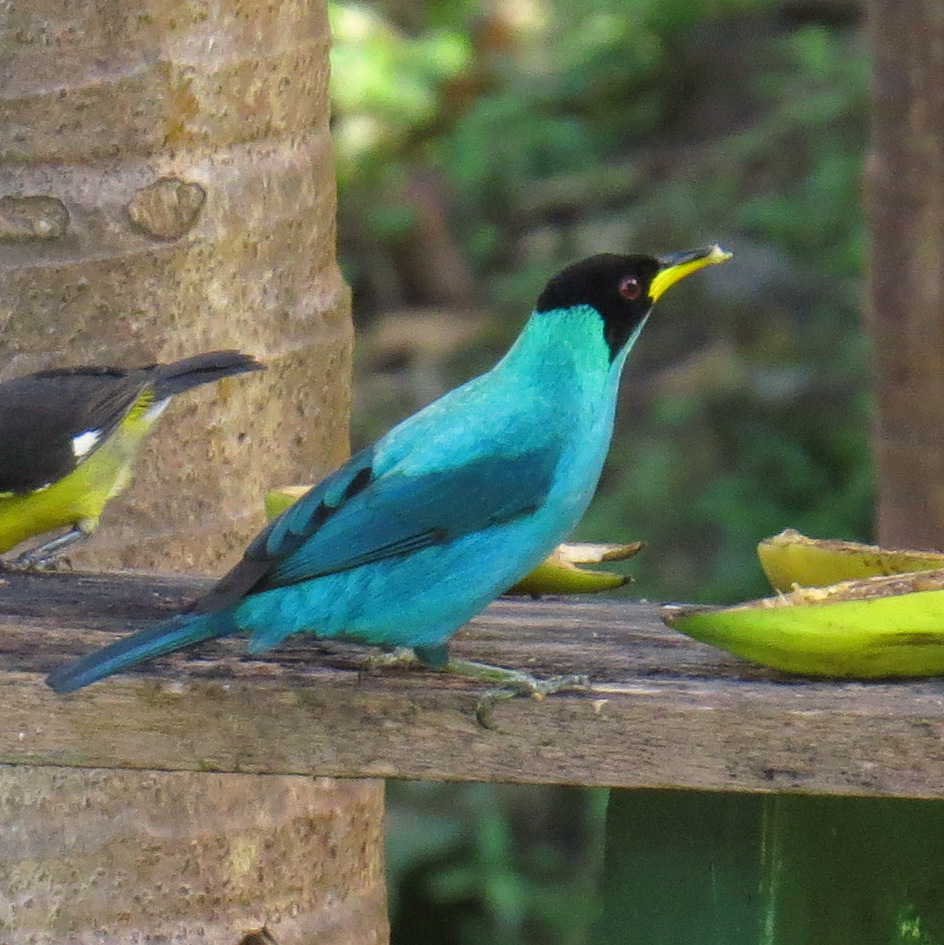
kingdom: Animalia
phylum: Chordata
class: Aves
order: Passeriformes
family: Thraupidae
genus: Chlorophanes
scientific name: Chlorophanes spiza
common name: Green honeycreeper
